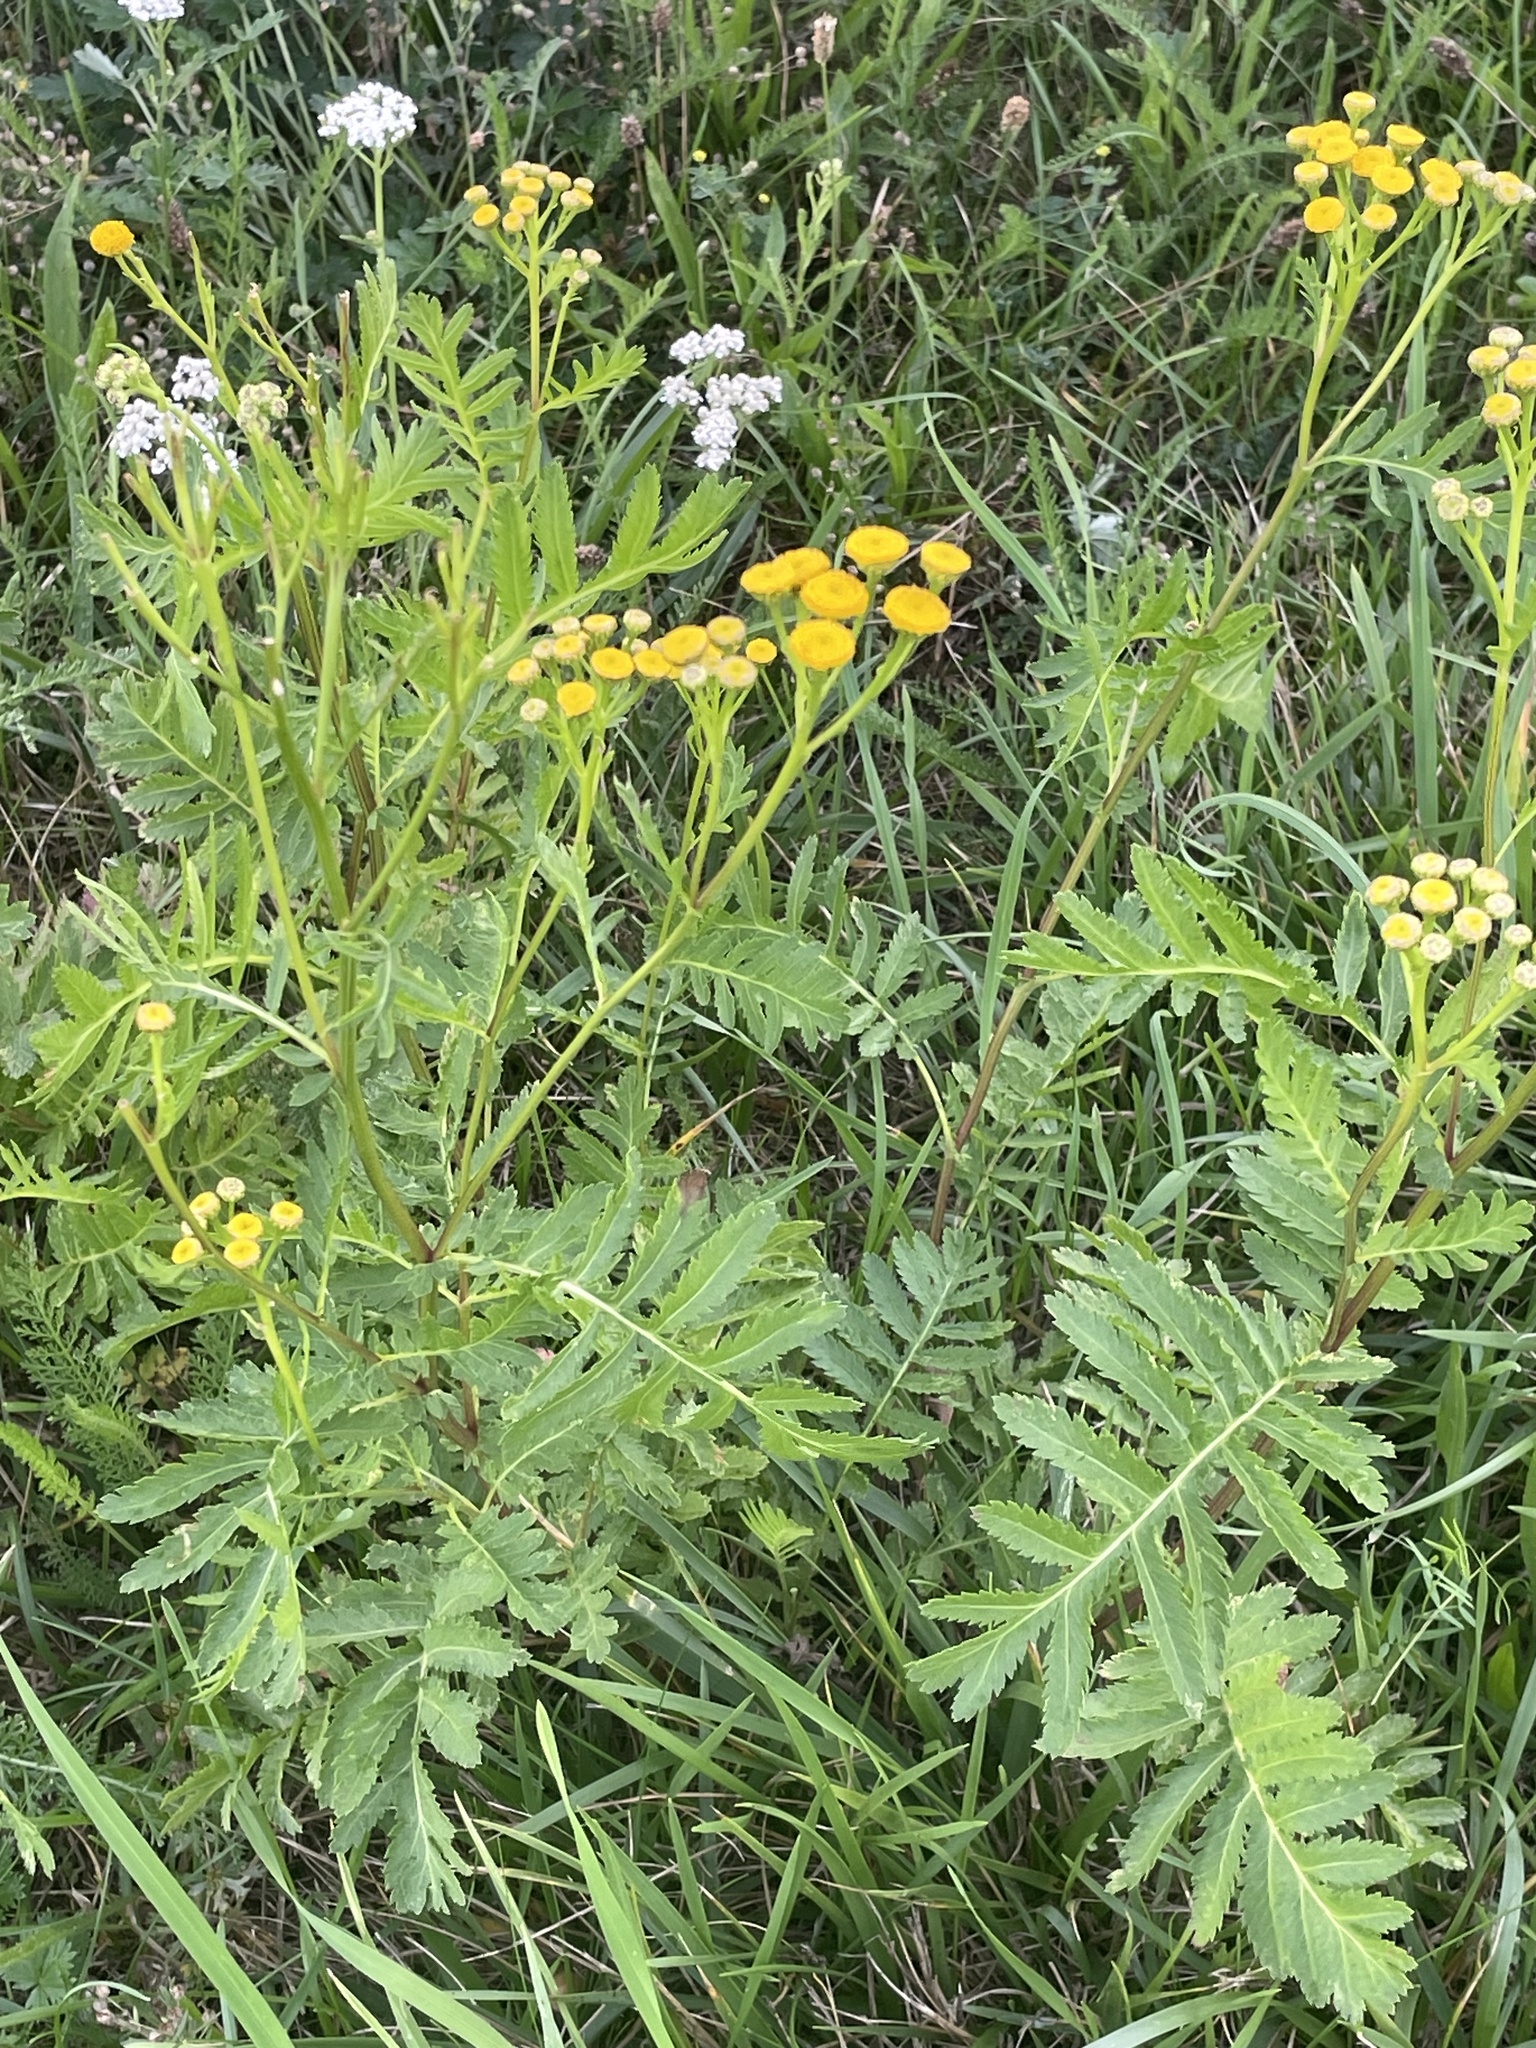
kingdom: Plantae
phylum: Tracheophyta
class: Magnoliopsida
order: Asterales
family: Asteraceae
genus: Tanacetum
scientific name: Tanacetum vulgare
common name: Common tansy
